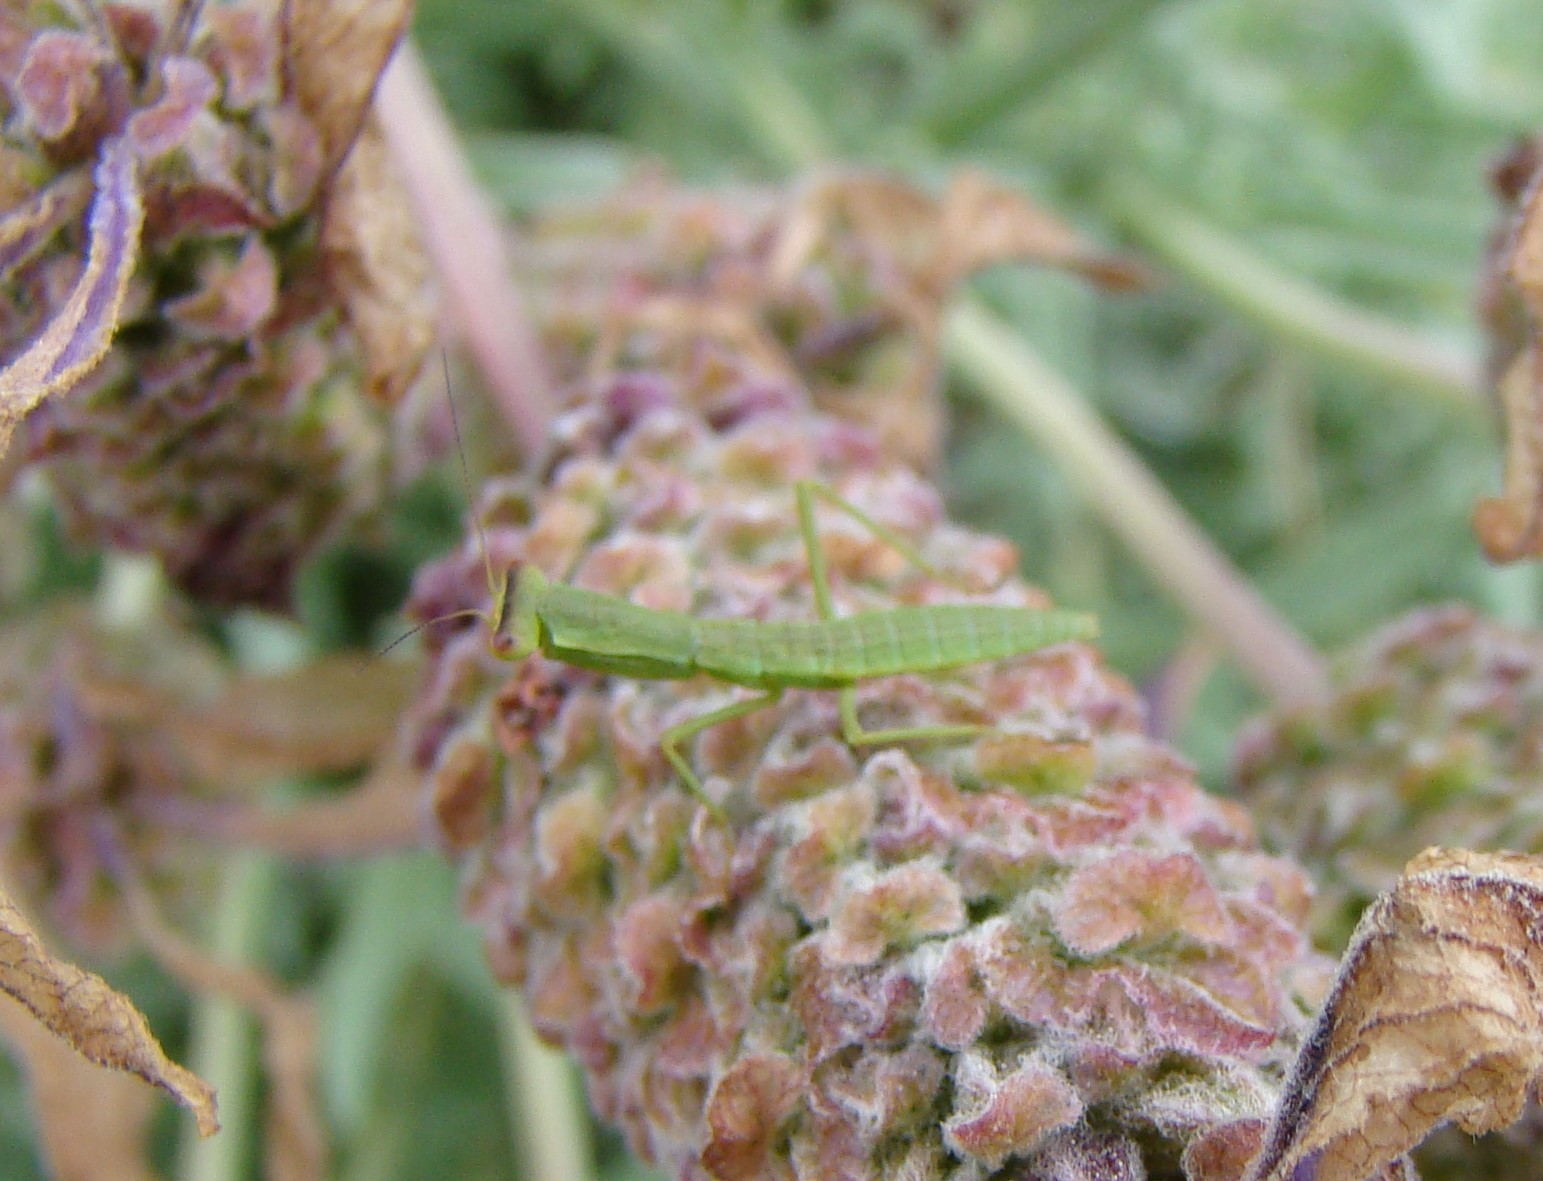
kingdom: Animalia
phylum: Arthropoda
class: Insecta
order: Mantodea
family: Mantidae
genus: Orthodera
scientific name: Orthodera novaezealandiae
